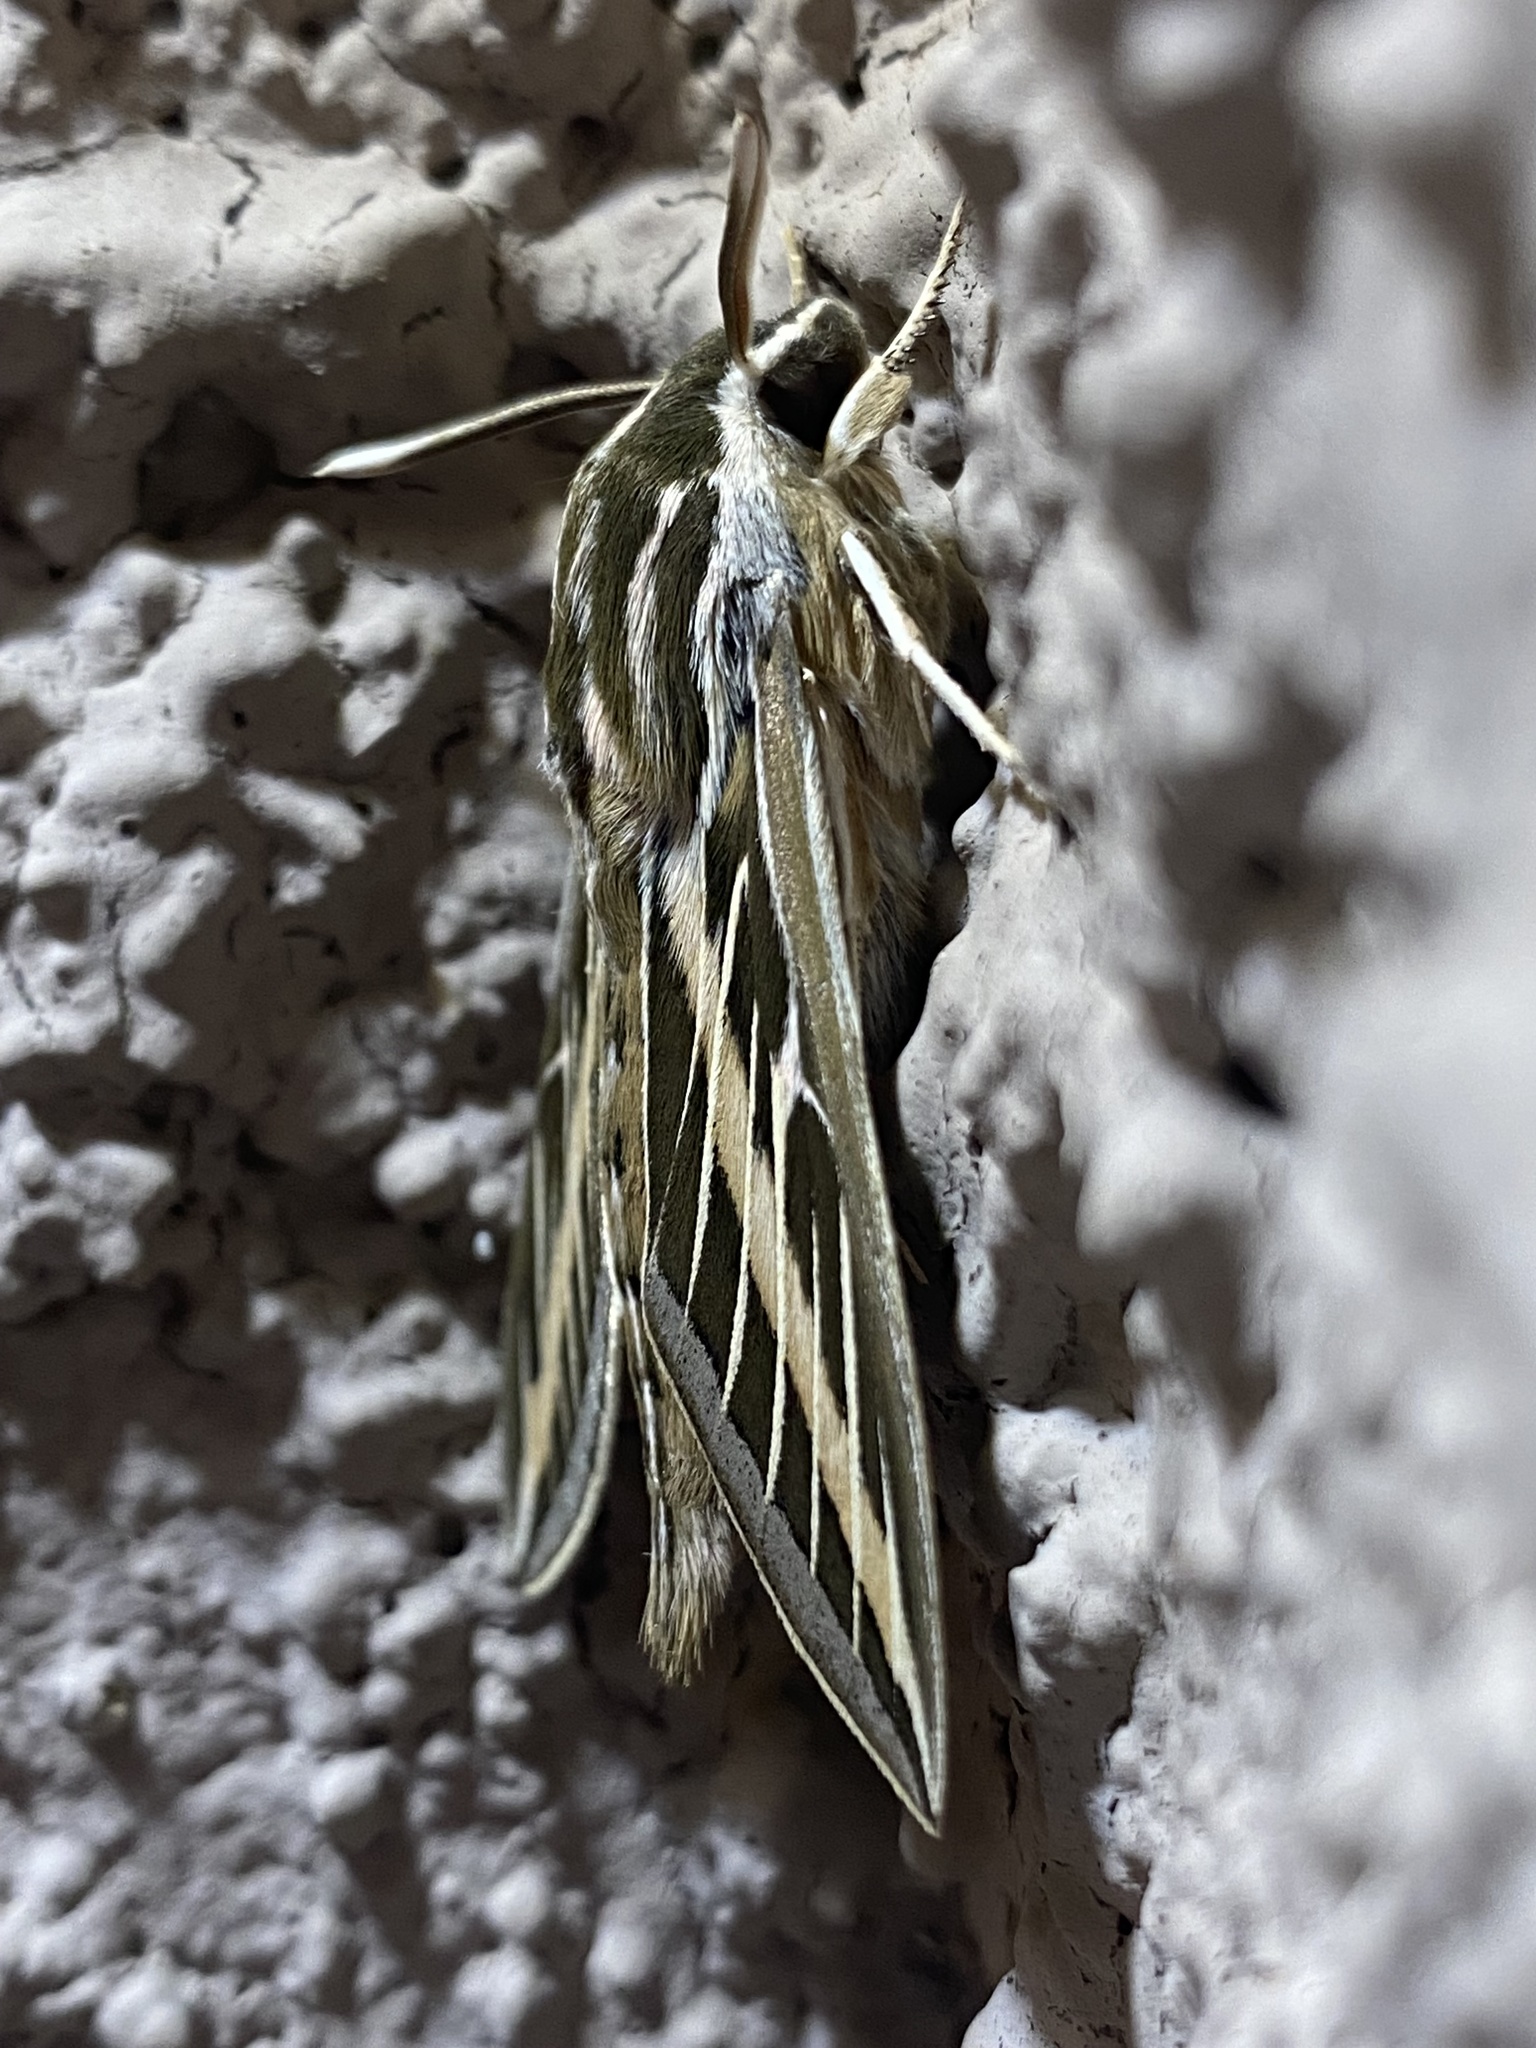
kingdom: Animalia
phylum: Arthropoda
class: Insecta
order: Lepidoptera
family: Sphingidae
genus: Hyles
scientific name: Hyles lineata
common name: White-lined sphinx
